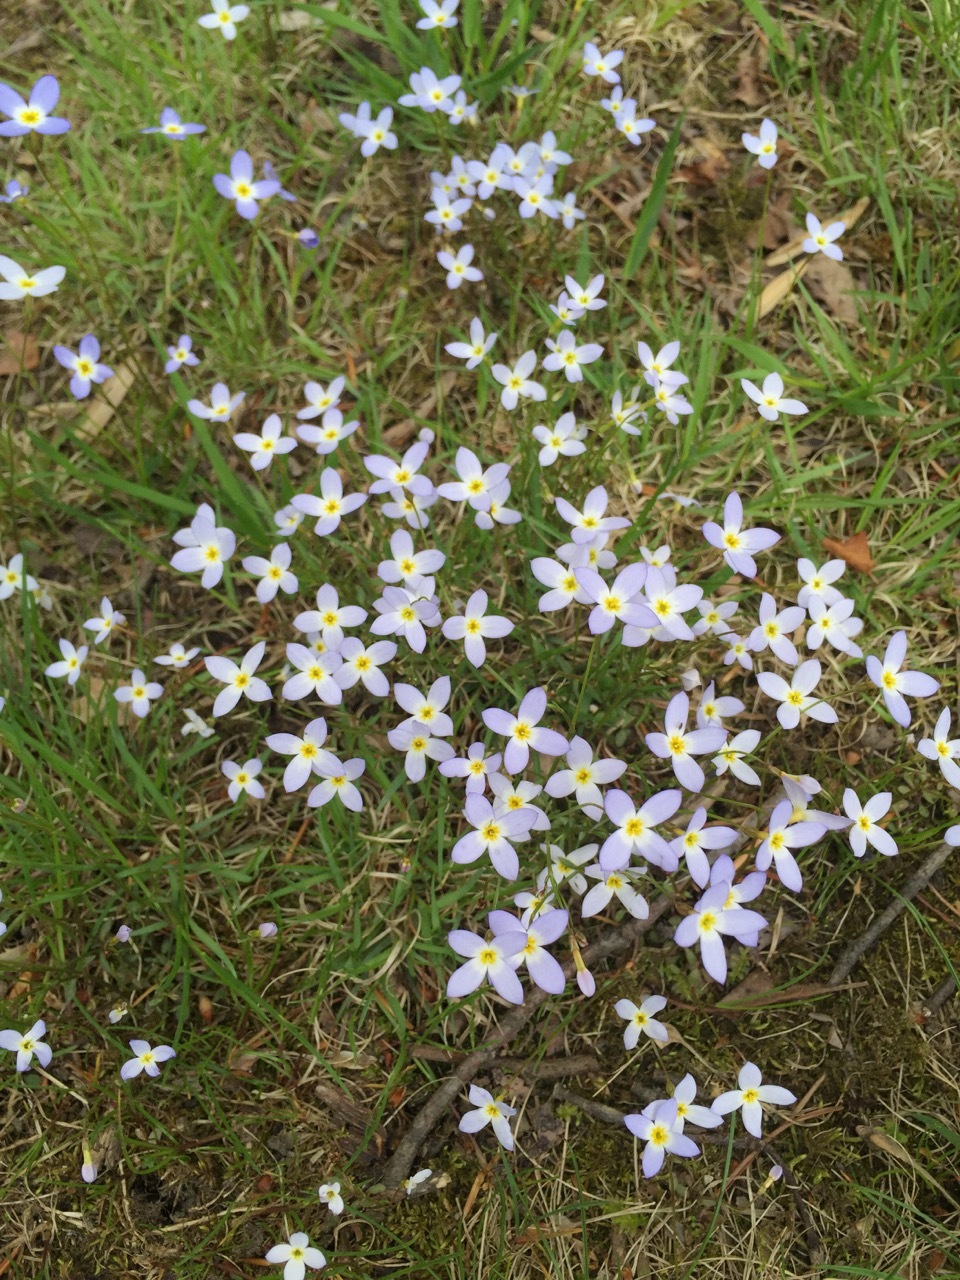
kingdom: Plantae
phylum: Tracheophyta
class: Magnoliopsida
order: Gentianales
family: Rubiaceae
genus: Houstonia
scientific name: Houstonia caerulea
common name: Bluets
